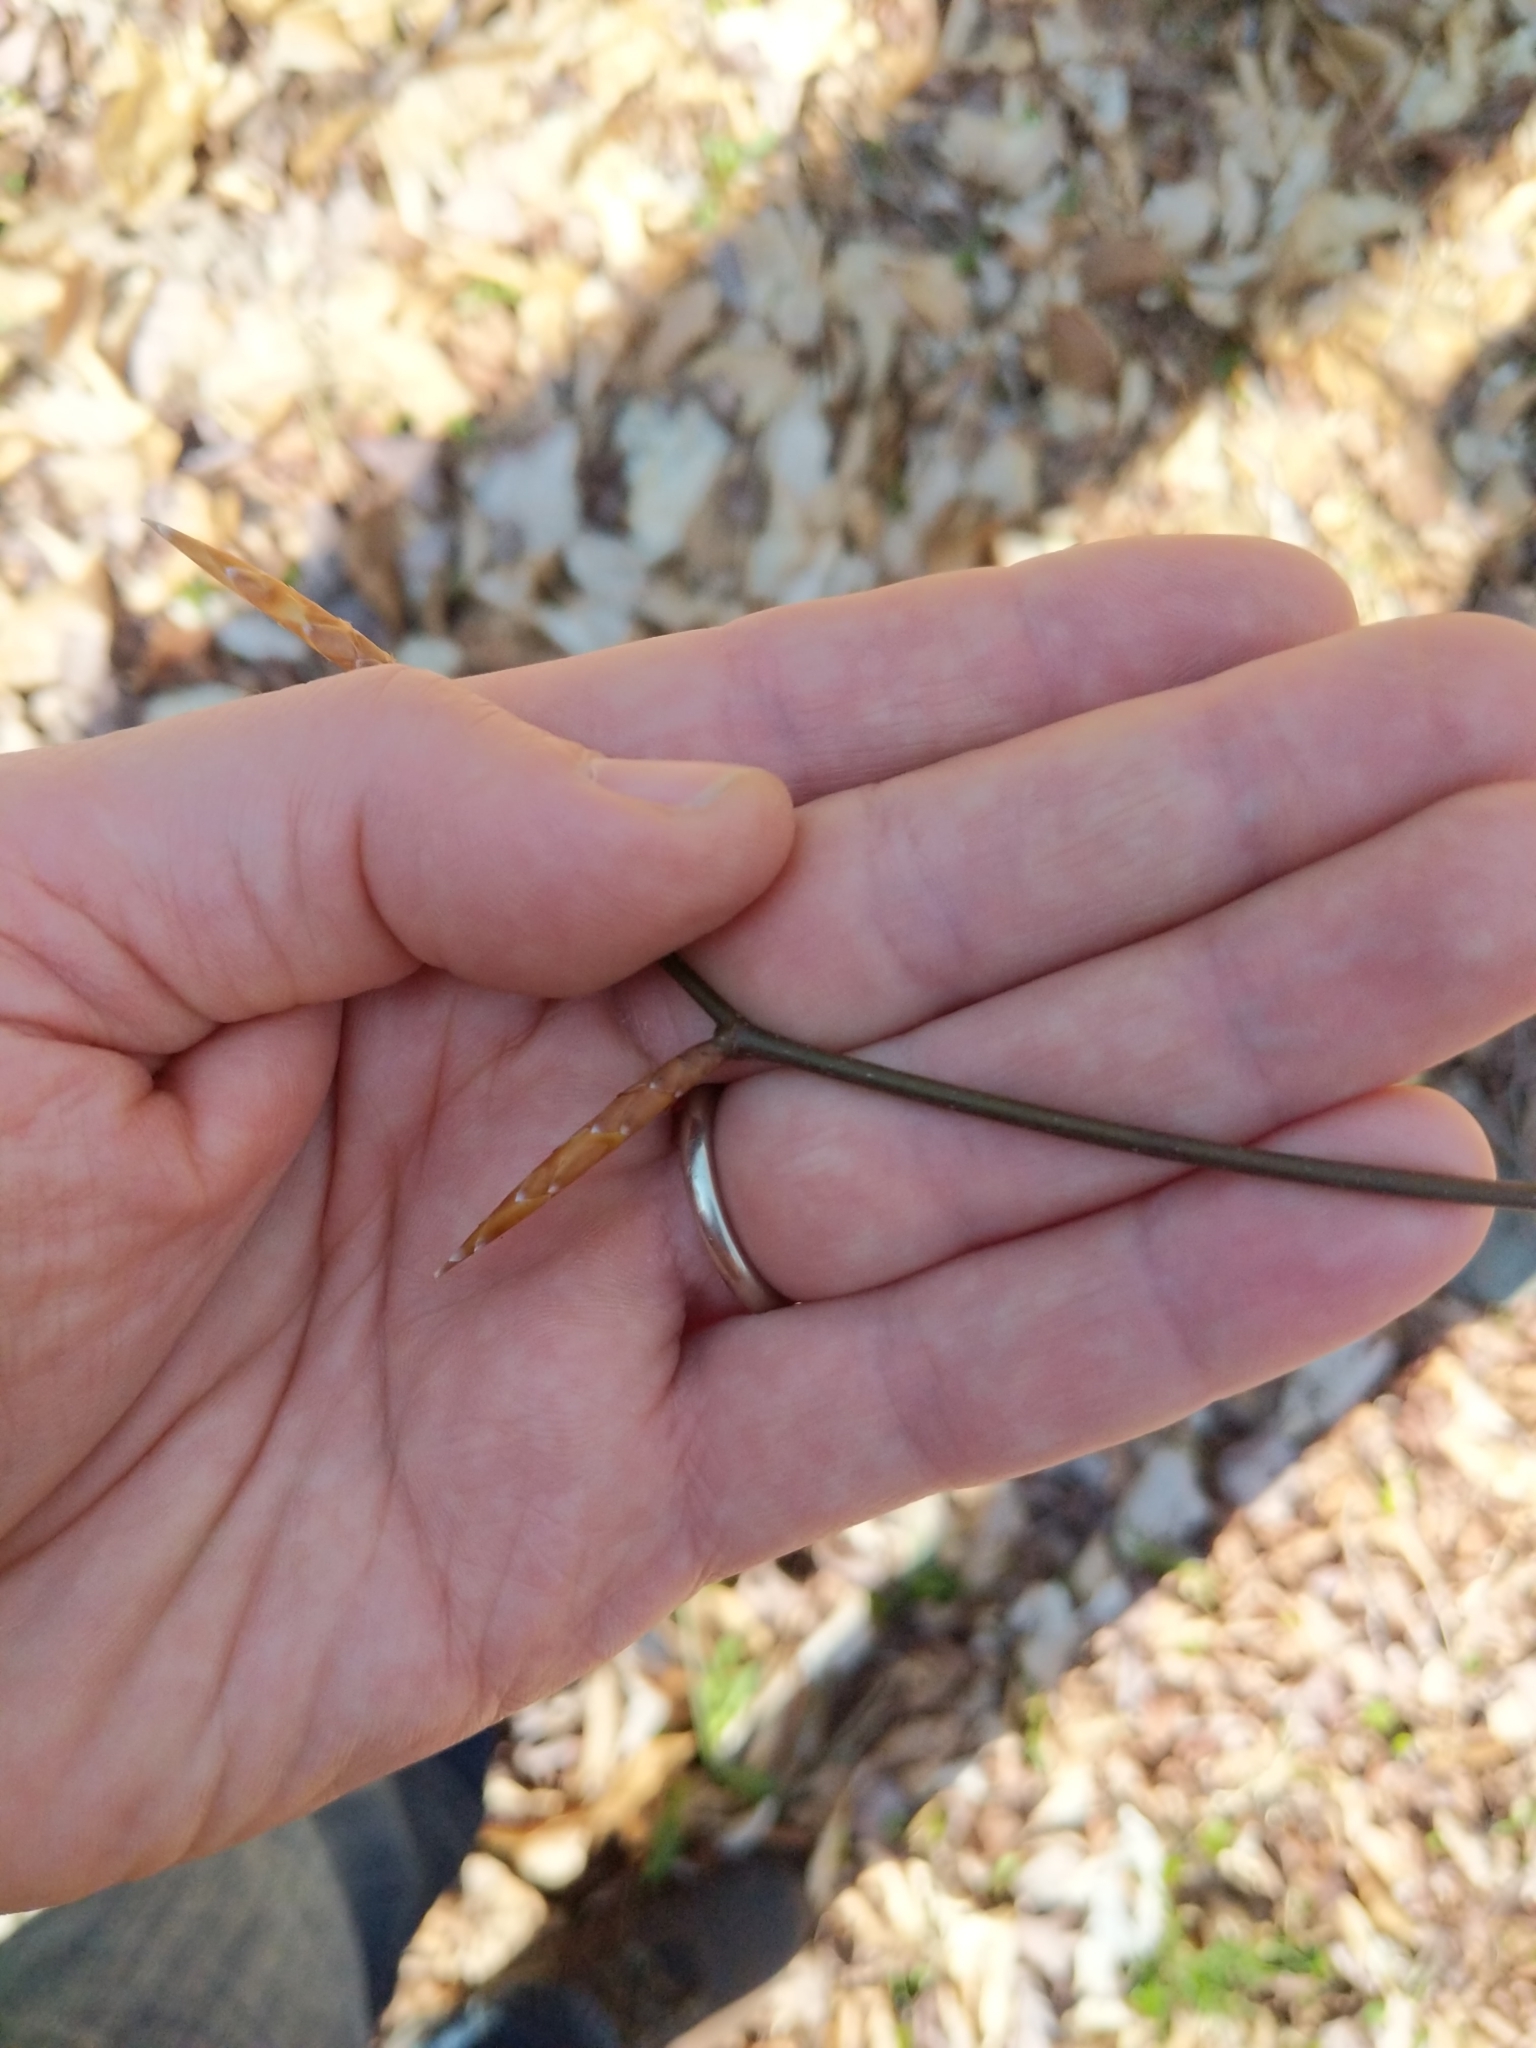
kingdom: Plantae
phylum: Tracheophyta
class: Magnoliopsida
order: Fagales
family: Fagaceae
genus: Fagus
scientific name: Fagus grandifolia
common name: American beech
